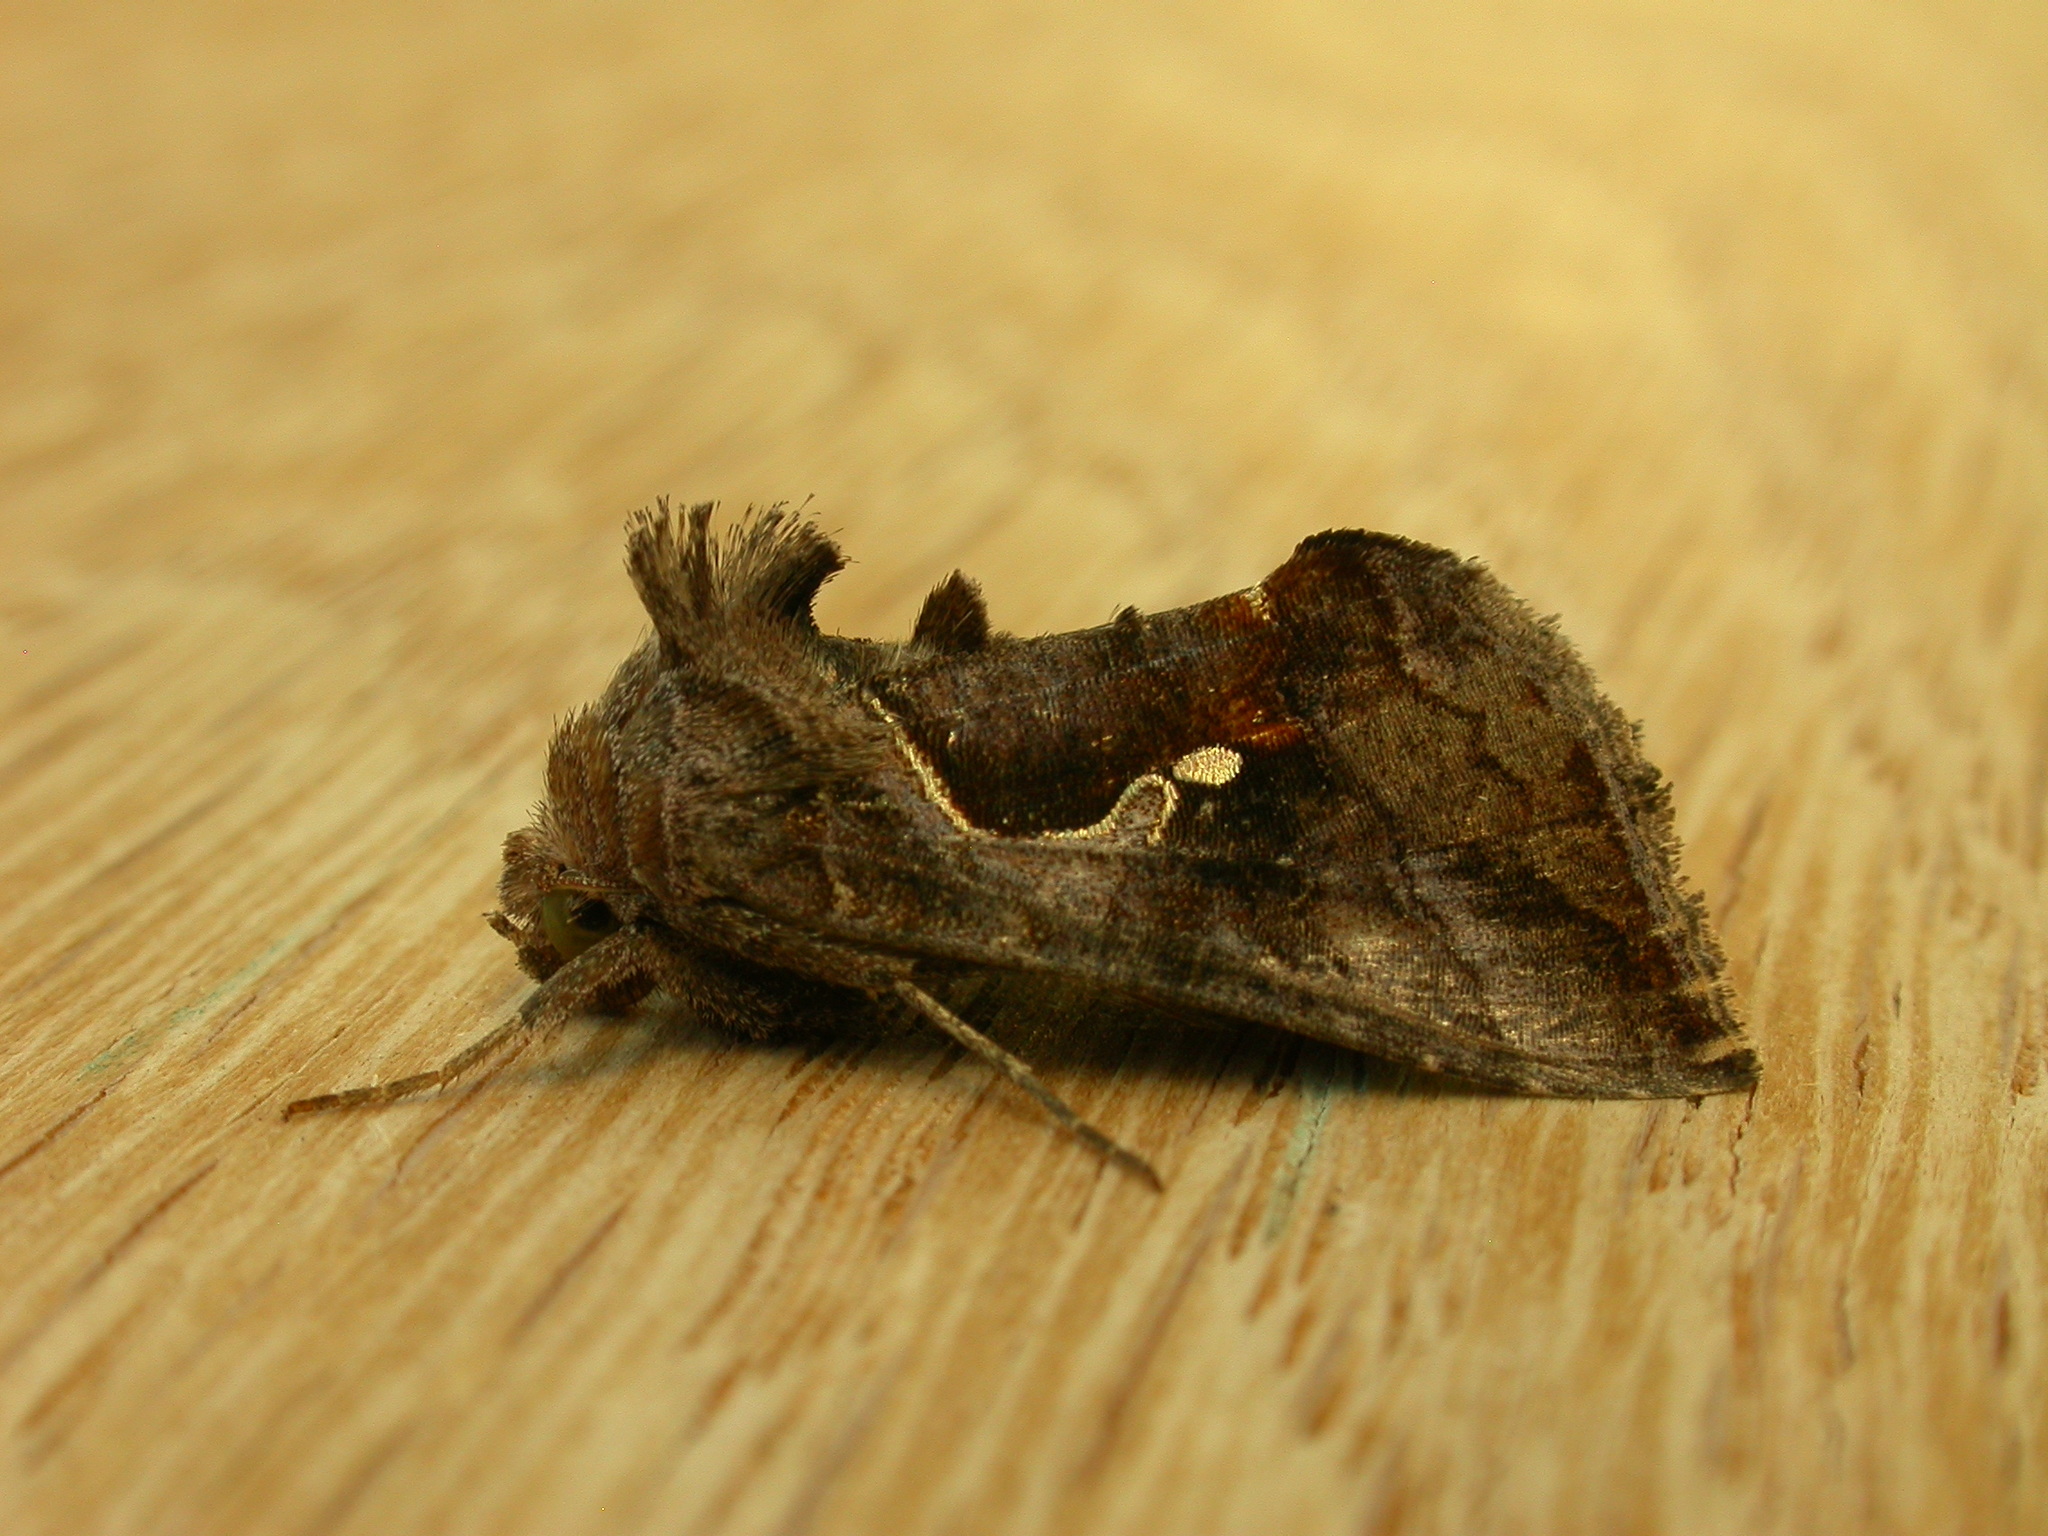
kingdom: Animalia
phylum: Arthropoda
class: Insecta
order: Lepidoptera
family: Noctuidae
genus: Chrysodeixis
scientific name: Chrysodeixis subsidens
